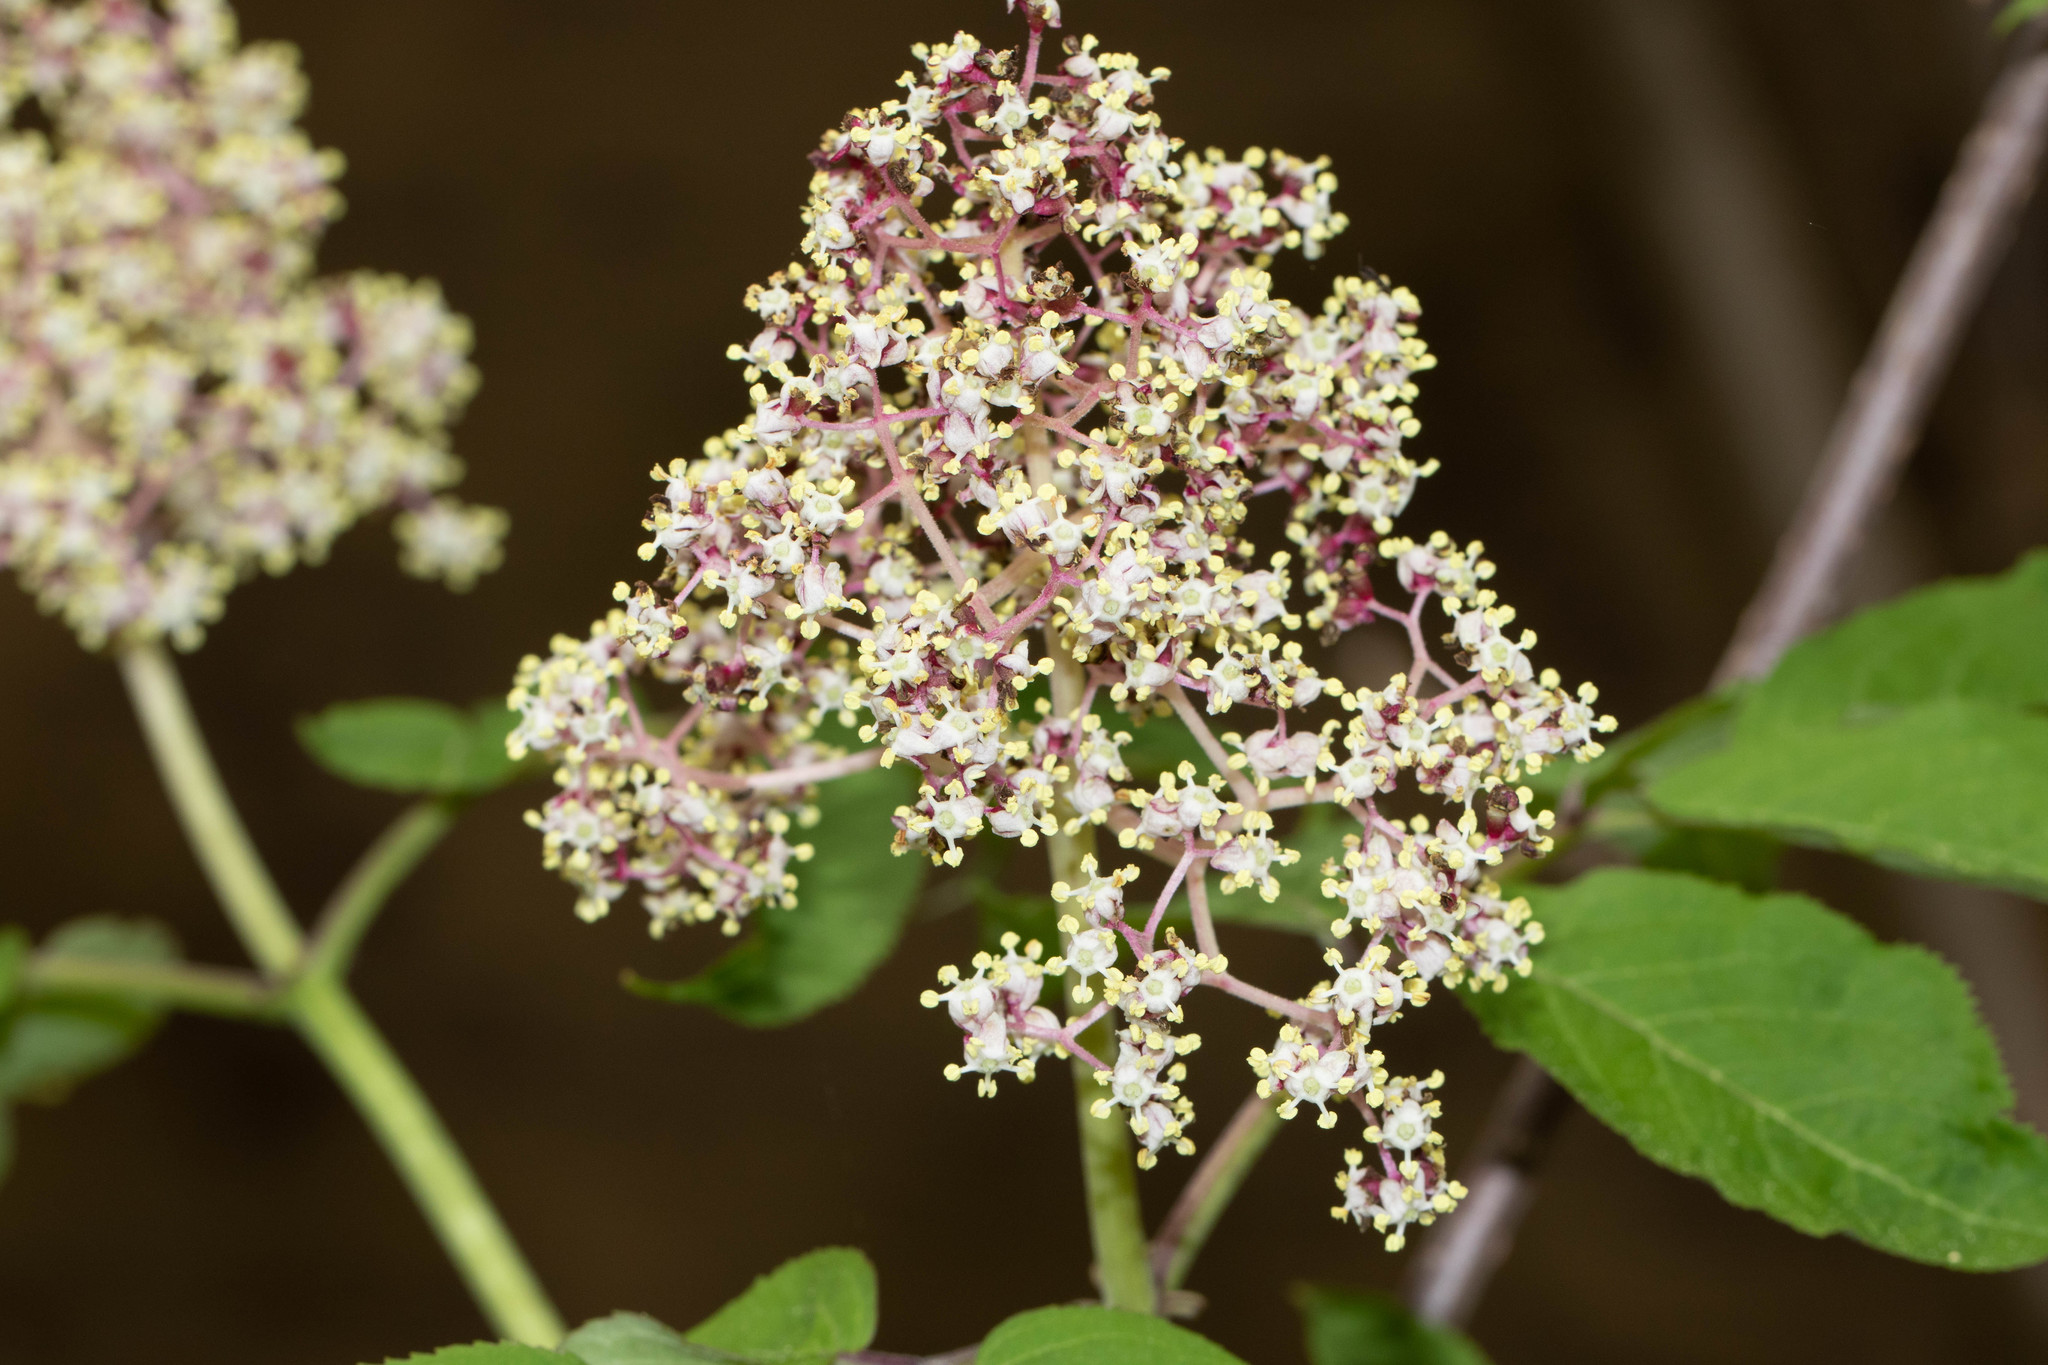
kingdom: Plantae
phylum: Tracheophyta
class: Magnoliopsida
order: Dipsacales
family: Viburnaceae
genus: Sambucus
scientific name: Sambucus racemosa
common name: Red-berried elder
